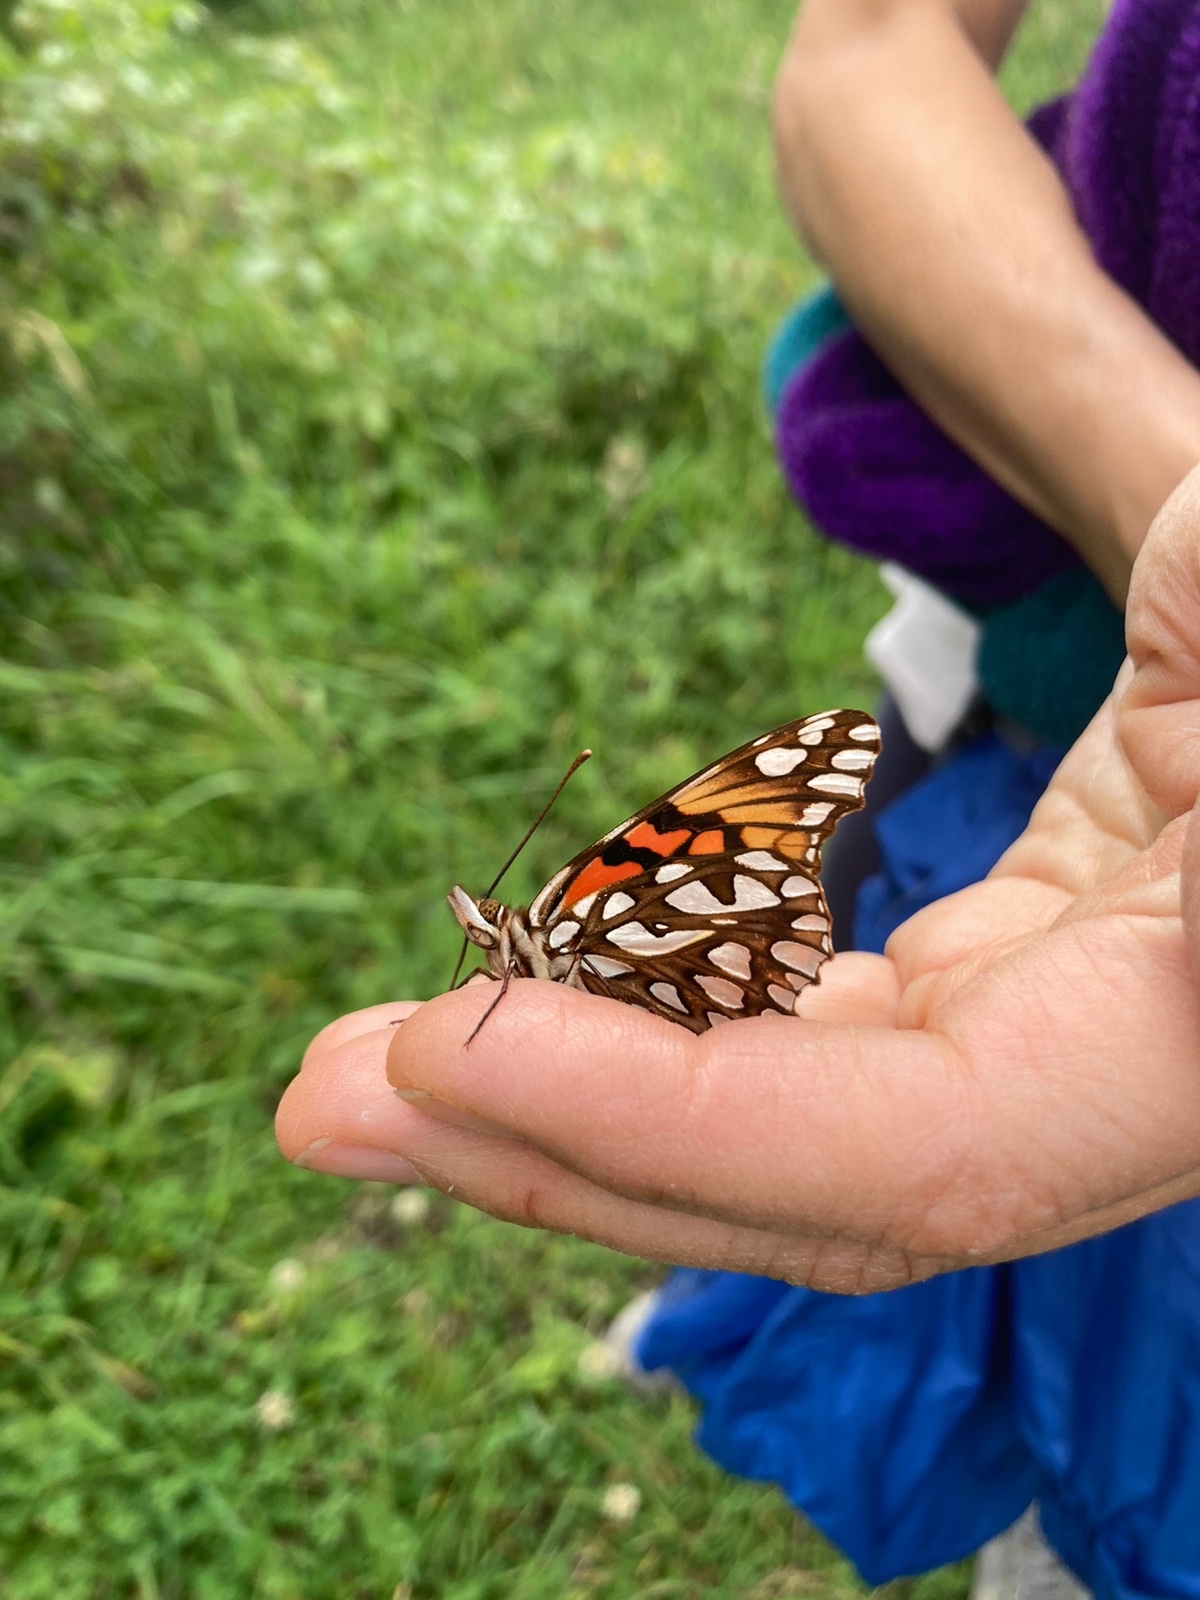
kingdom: Animalia
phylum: Arthropoda
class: Insecta
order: Lepidoptera
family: Nymphalidae
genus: Dione
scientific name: Dione glycera
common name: Andean silverspot
